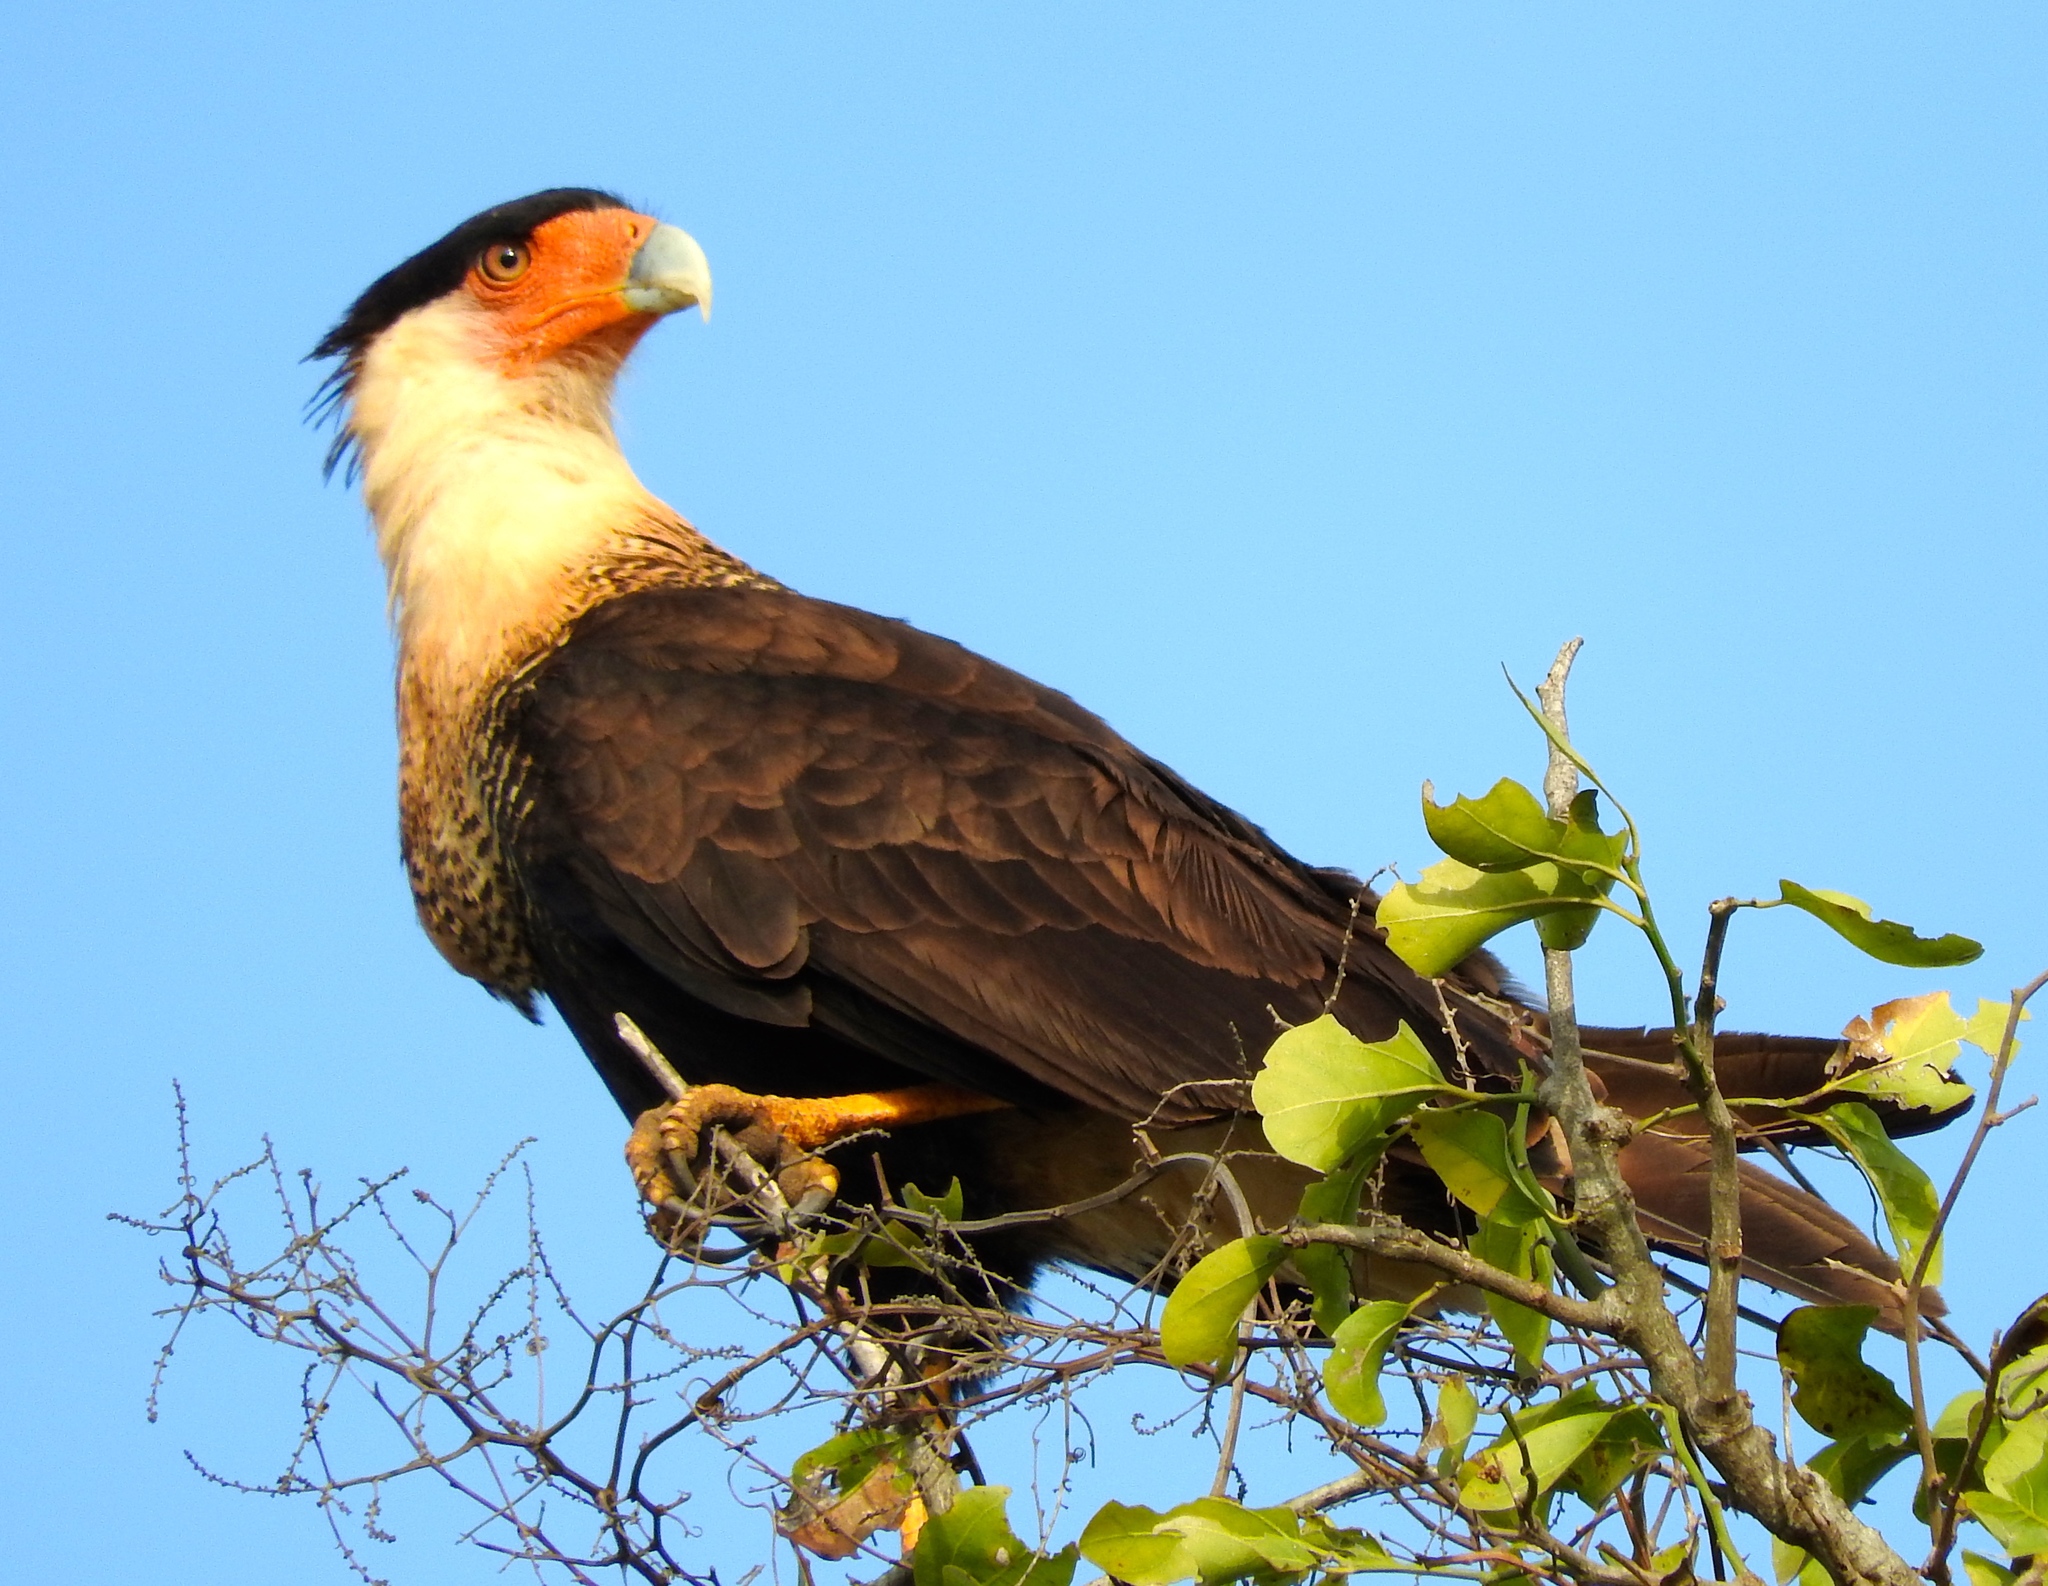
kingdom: Animalia
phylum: Chordata
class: Aves
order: Falconiformes
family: Falconidae
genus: Caracara
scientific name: Caracara plancus
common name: Southern caracara
